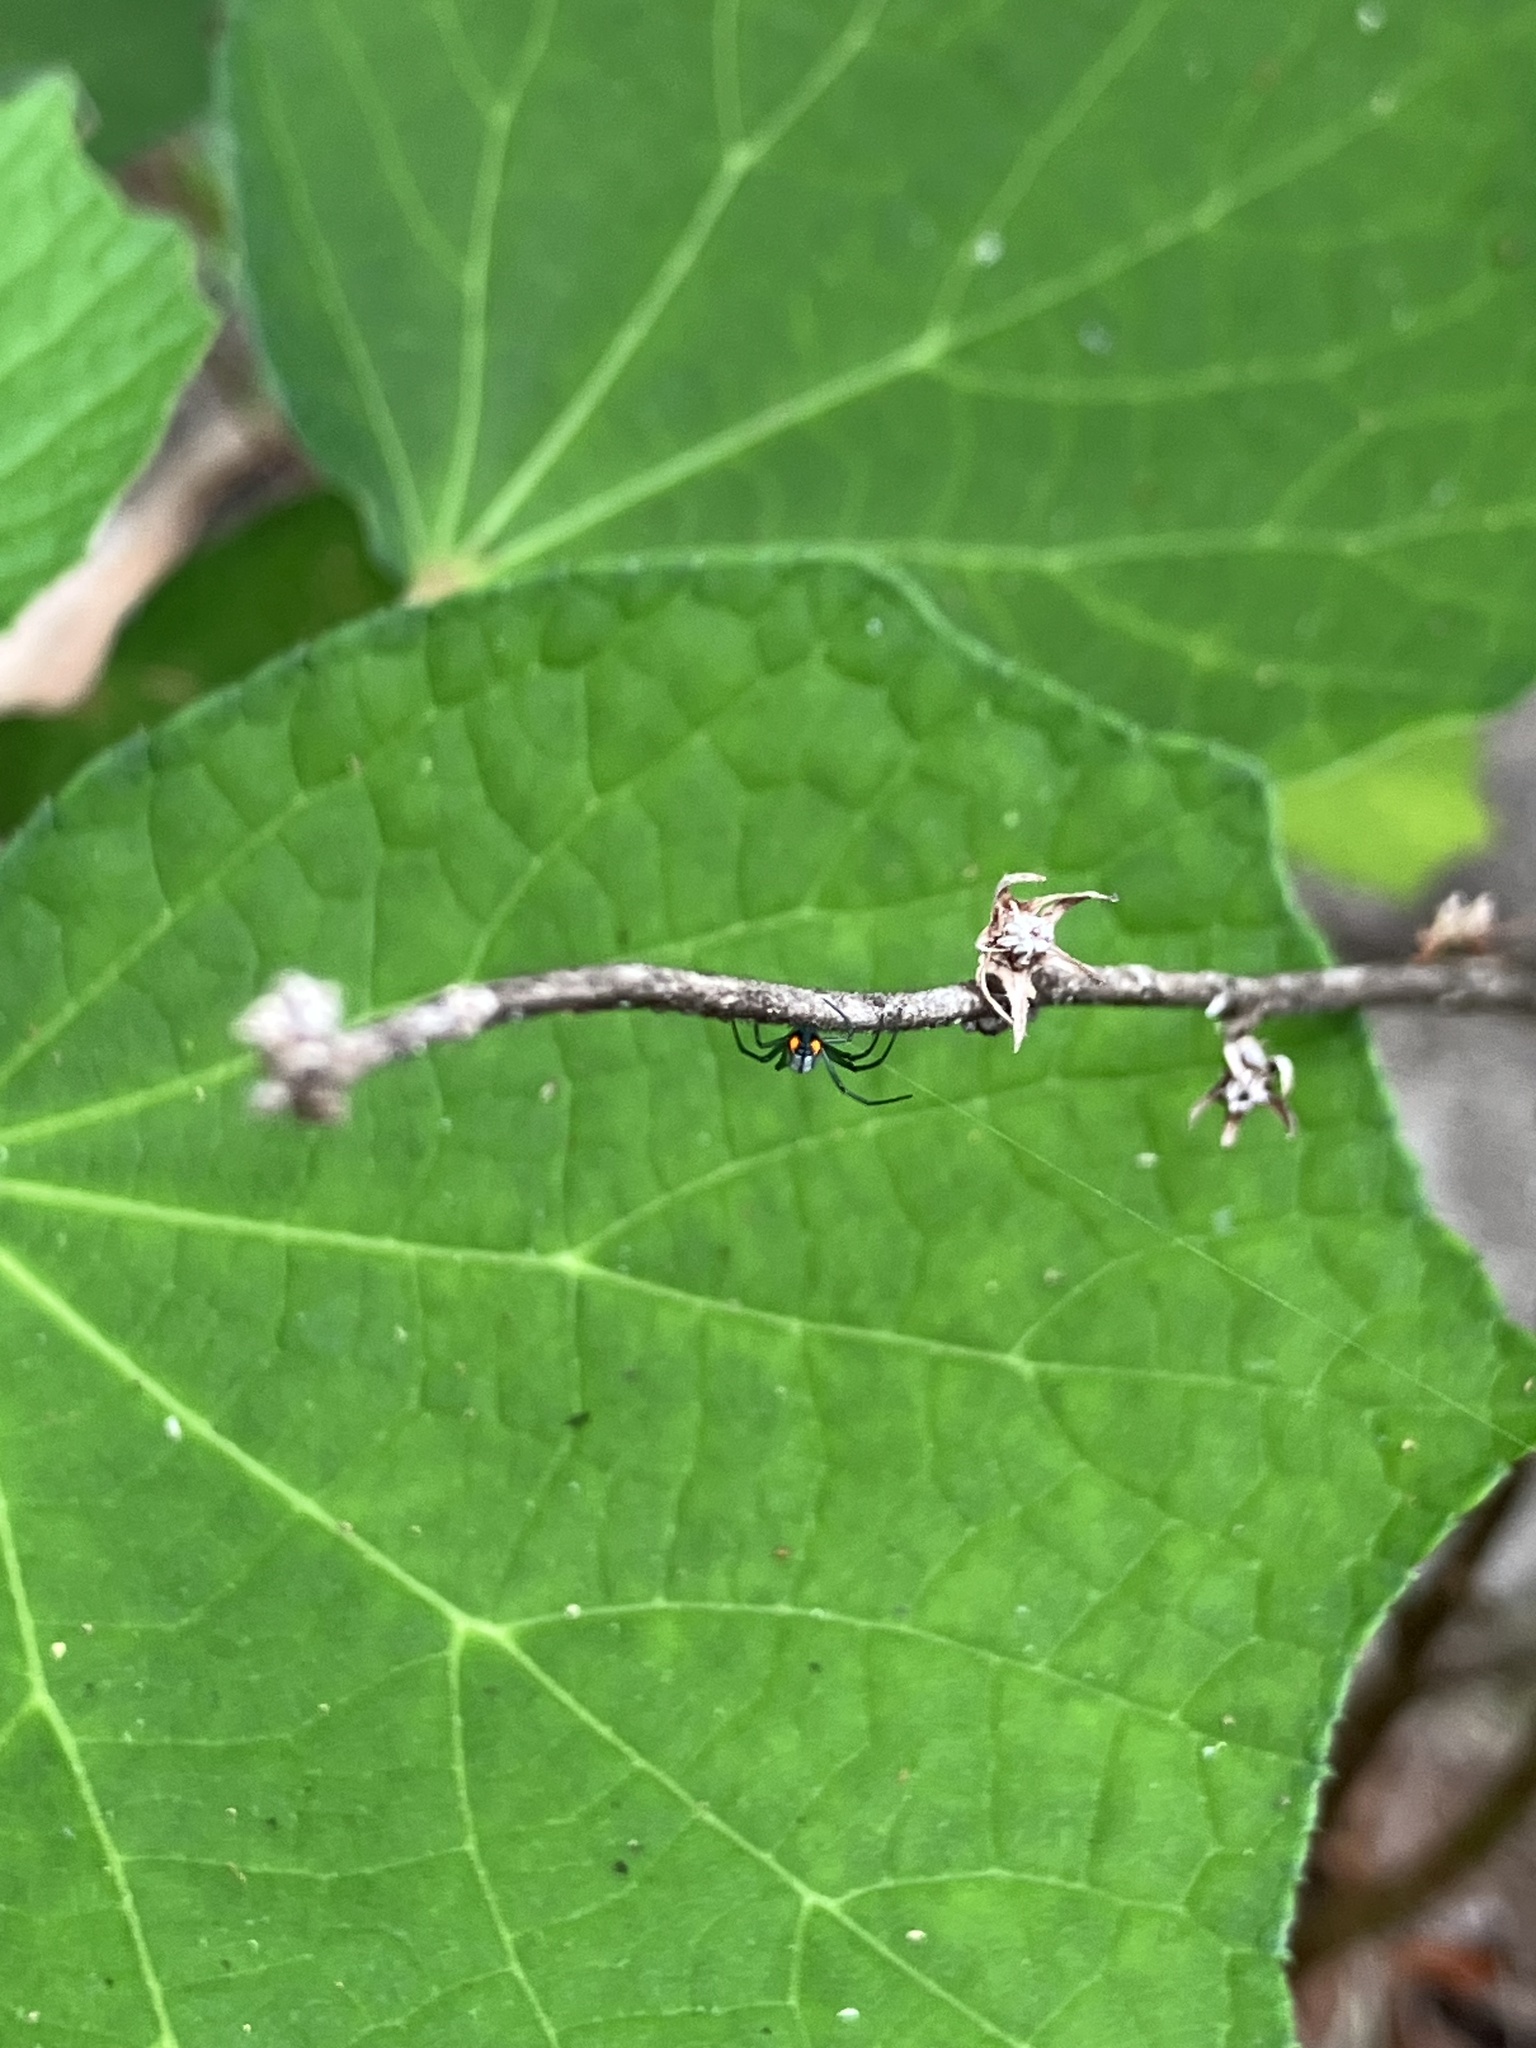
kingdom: Animalia
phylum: Arthropoda
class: Arachnida
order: Araneae
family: Tetragnathidae
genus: Leucauge
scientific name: Leucauge argyrobapta
